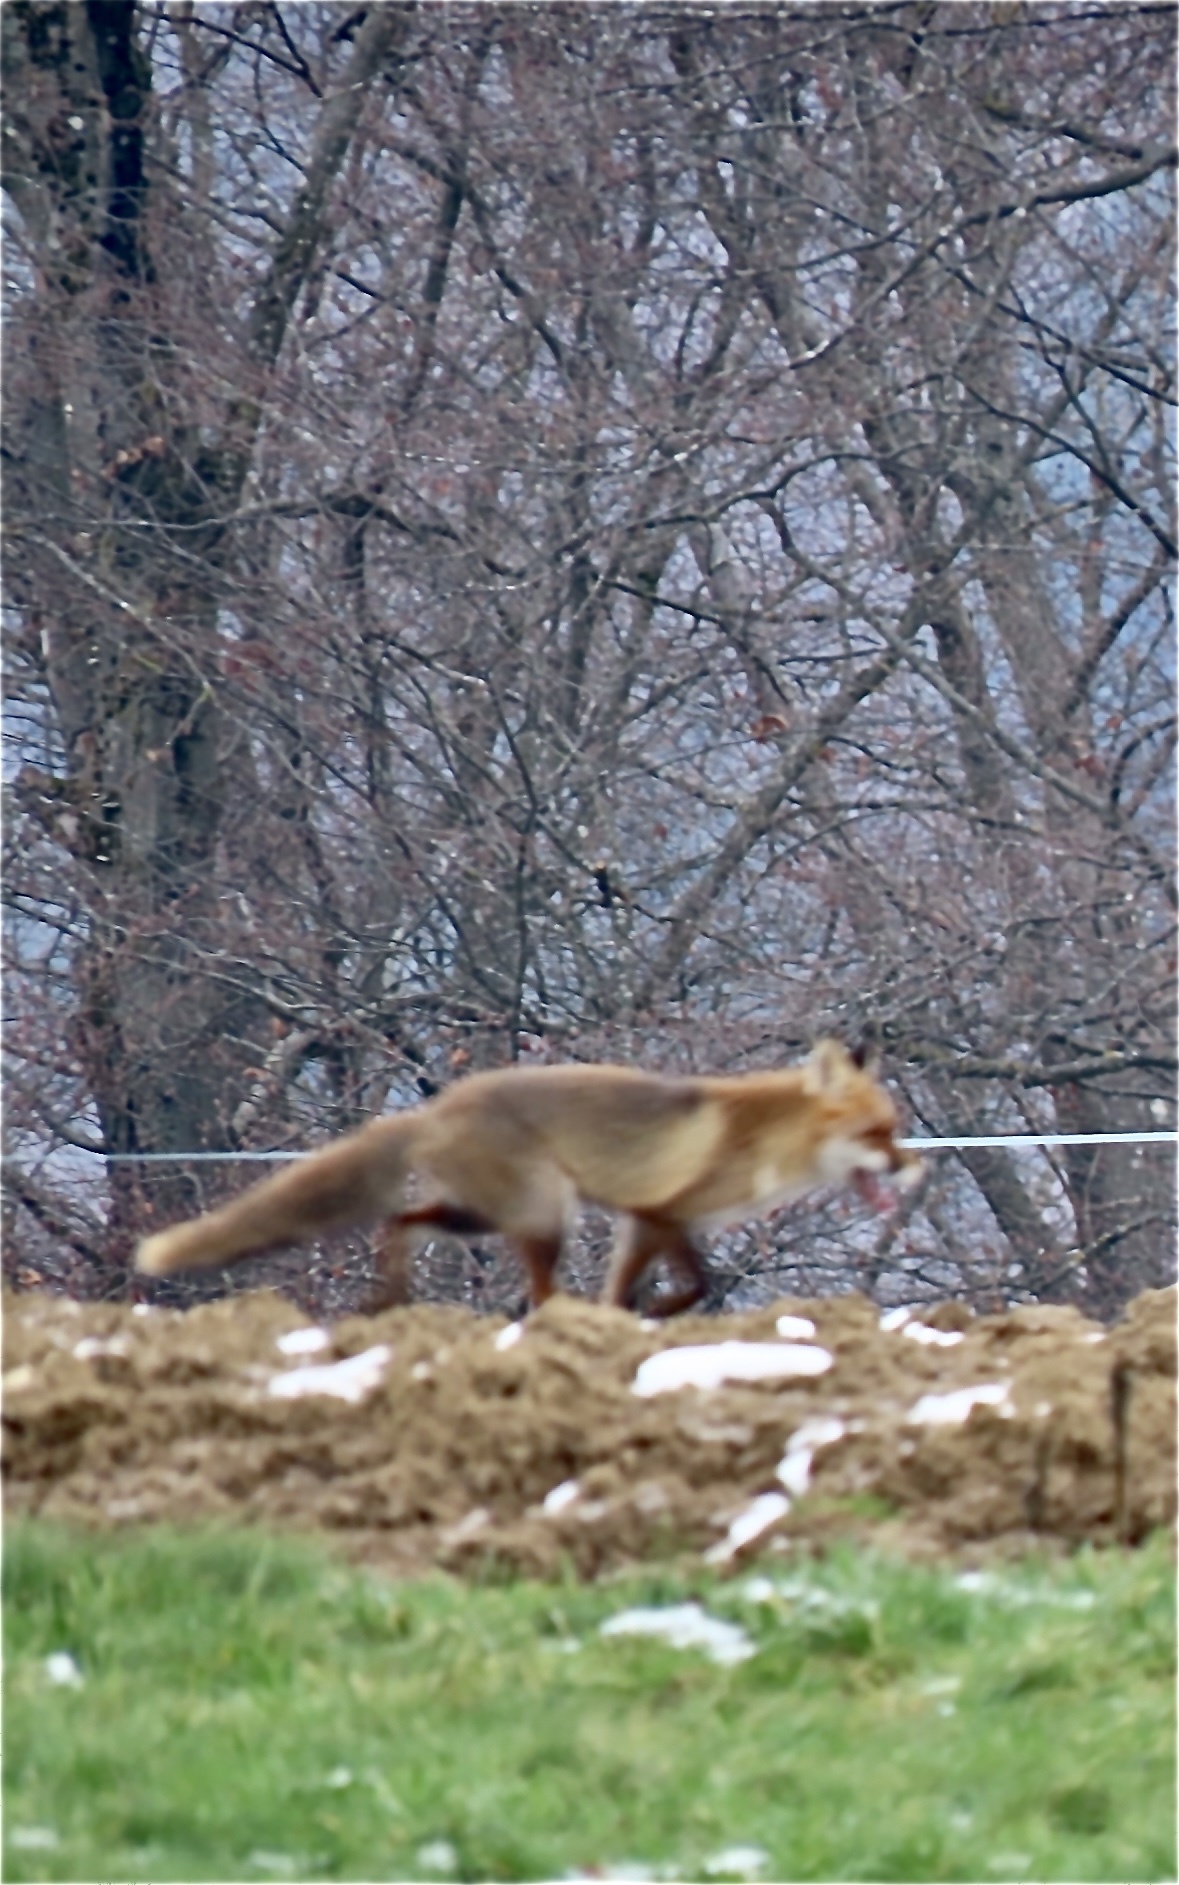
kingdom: Animalia
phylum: Chordata
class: Mammalia
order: Carnivora
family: Canidae
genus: Vulpes
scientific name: Vulpes vulpes
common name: Red fox
